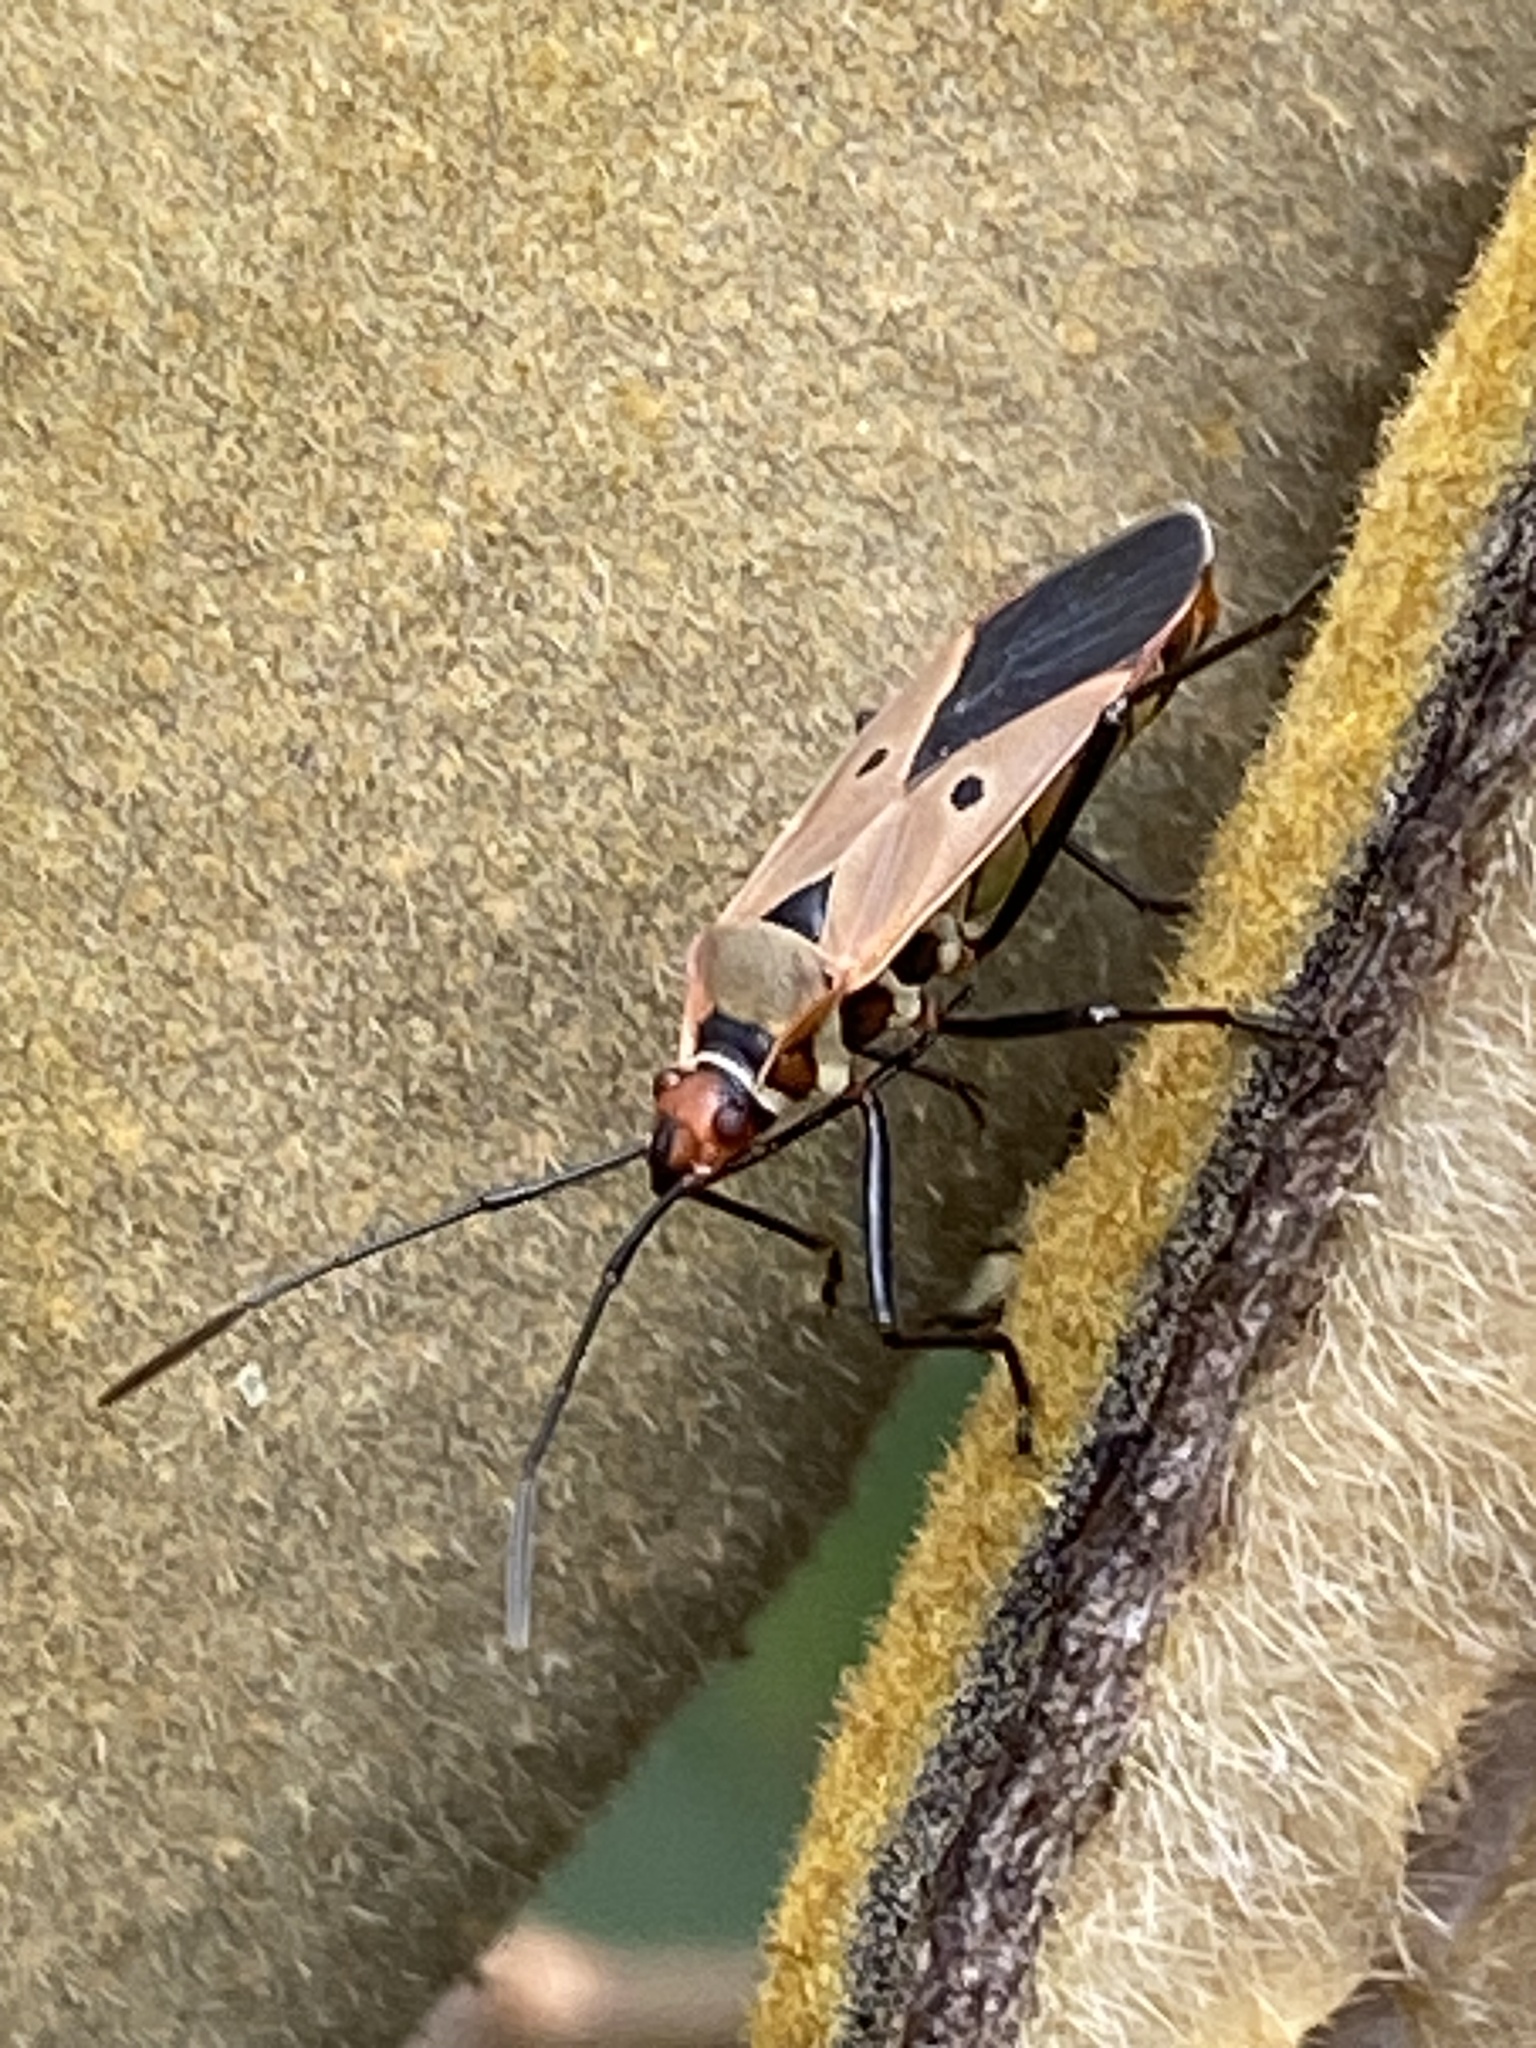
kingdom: Animalia
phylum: Arthropoda
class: Insecta
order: Hemiptera
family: Pyrrhocoridae
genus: Dysdercus
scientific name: Dysdercus sidae
